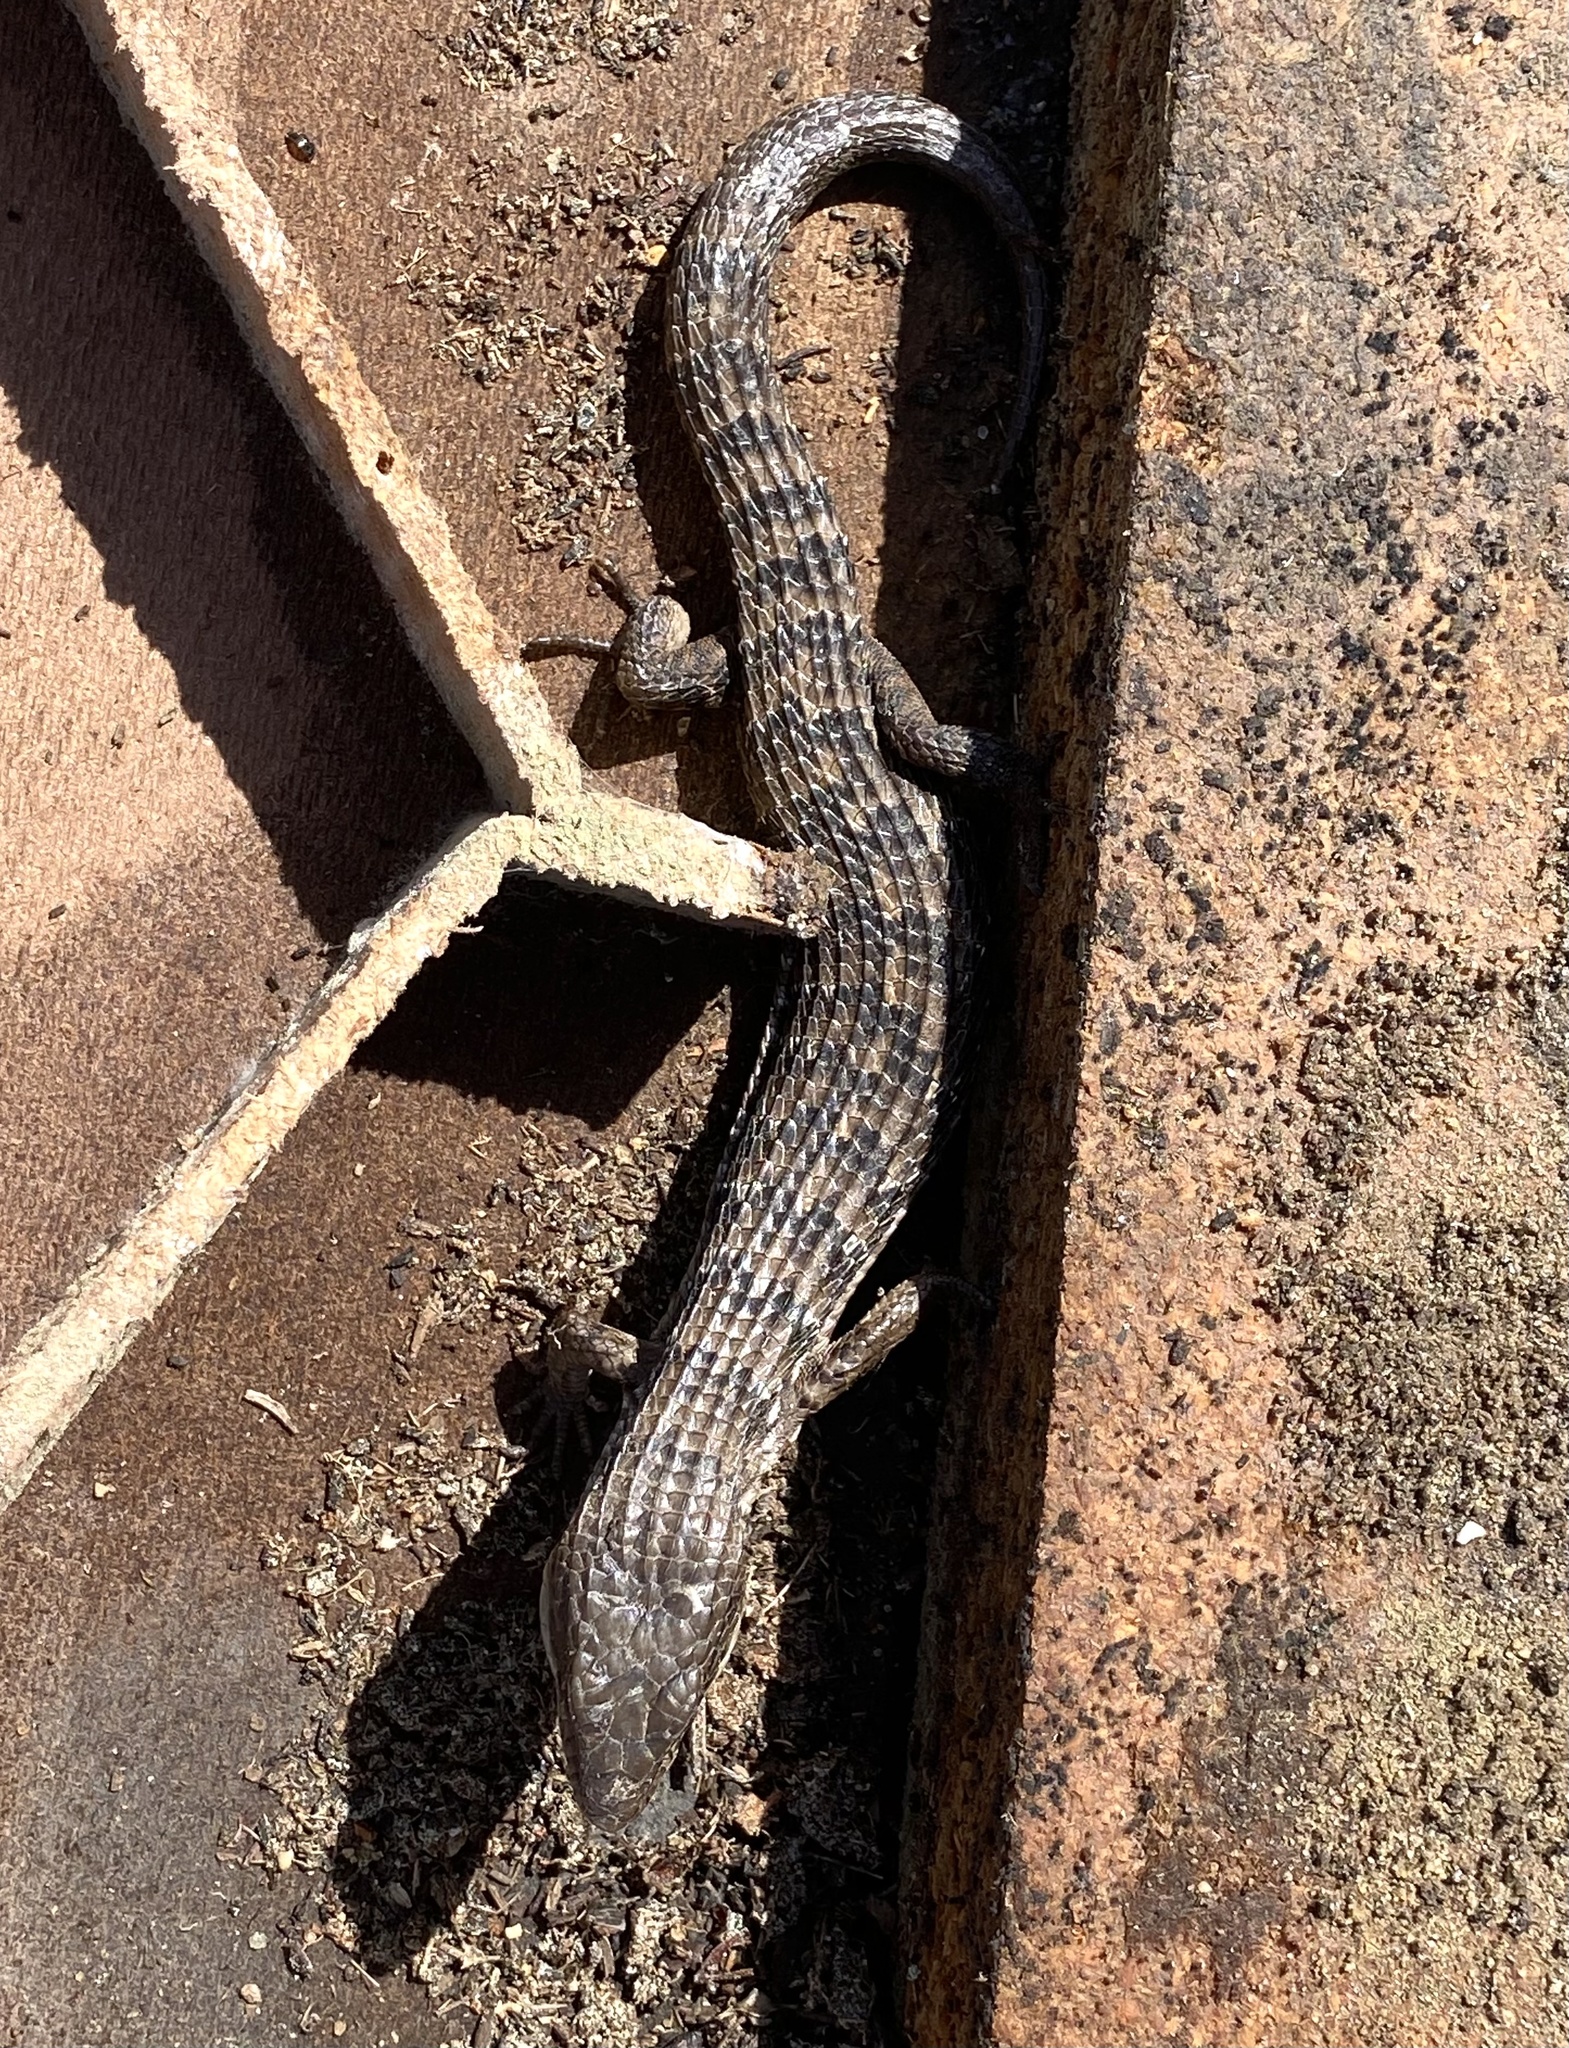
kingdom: Animalia
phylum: Chordata
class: Squamata
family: Anguidae
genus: Elgaria
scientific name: Elgaria multicarinata
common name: Southern alligator lizard
